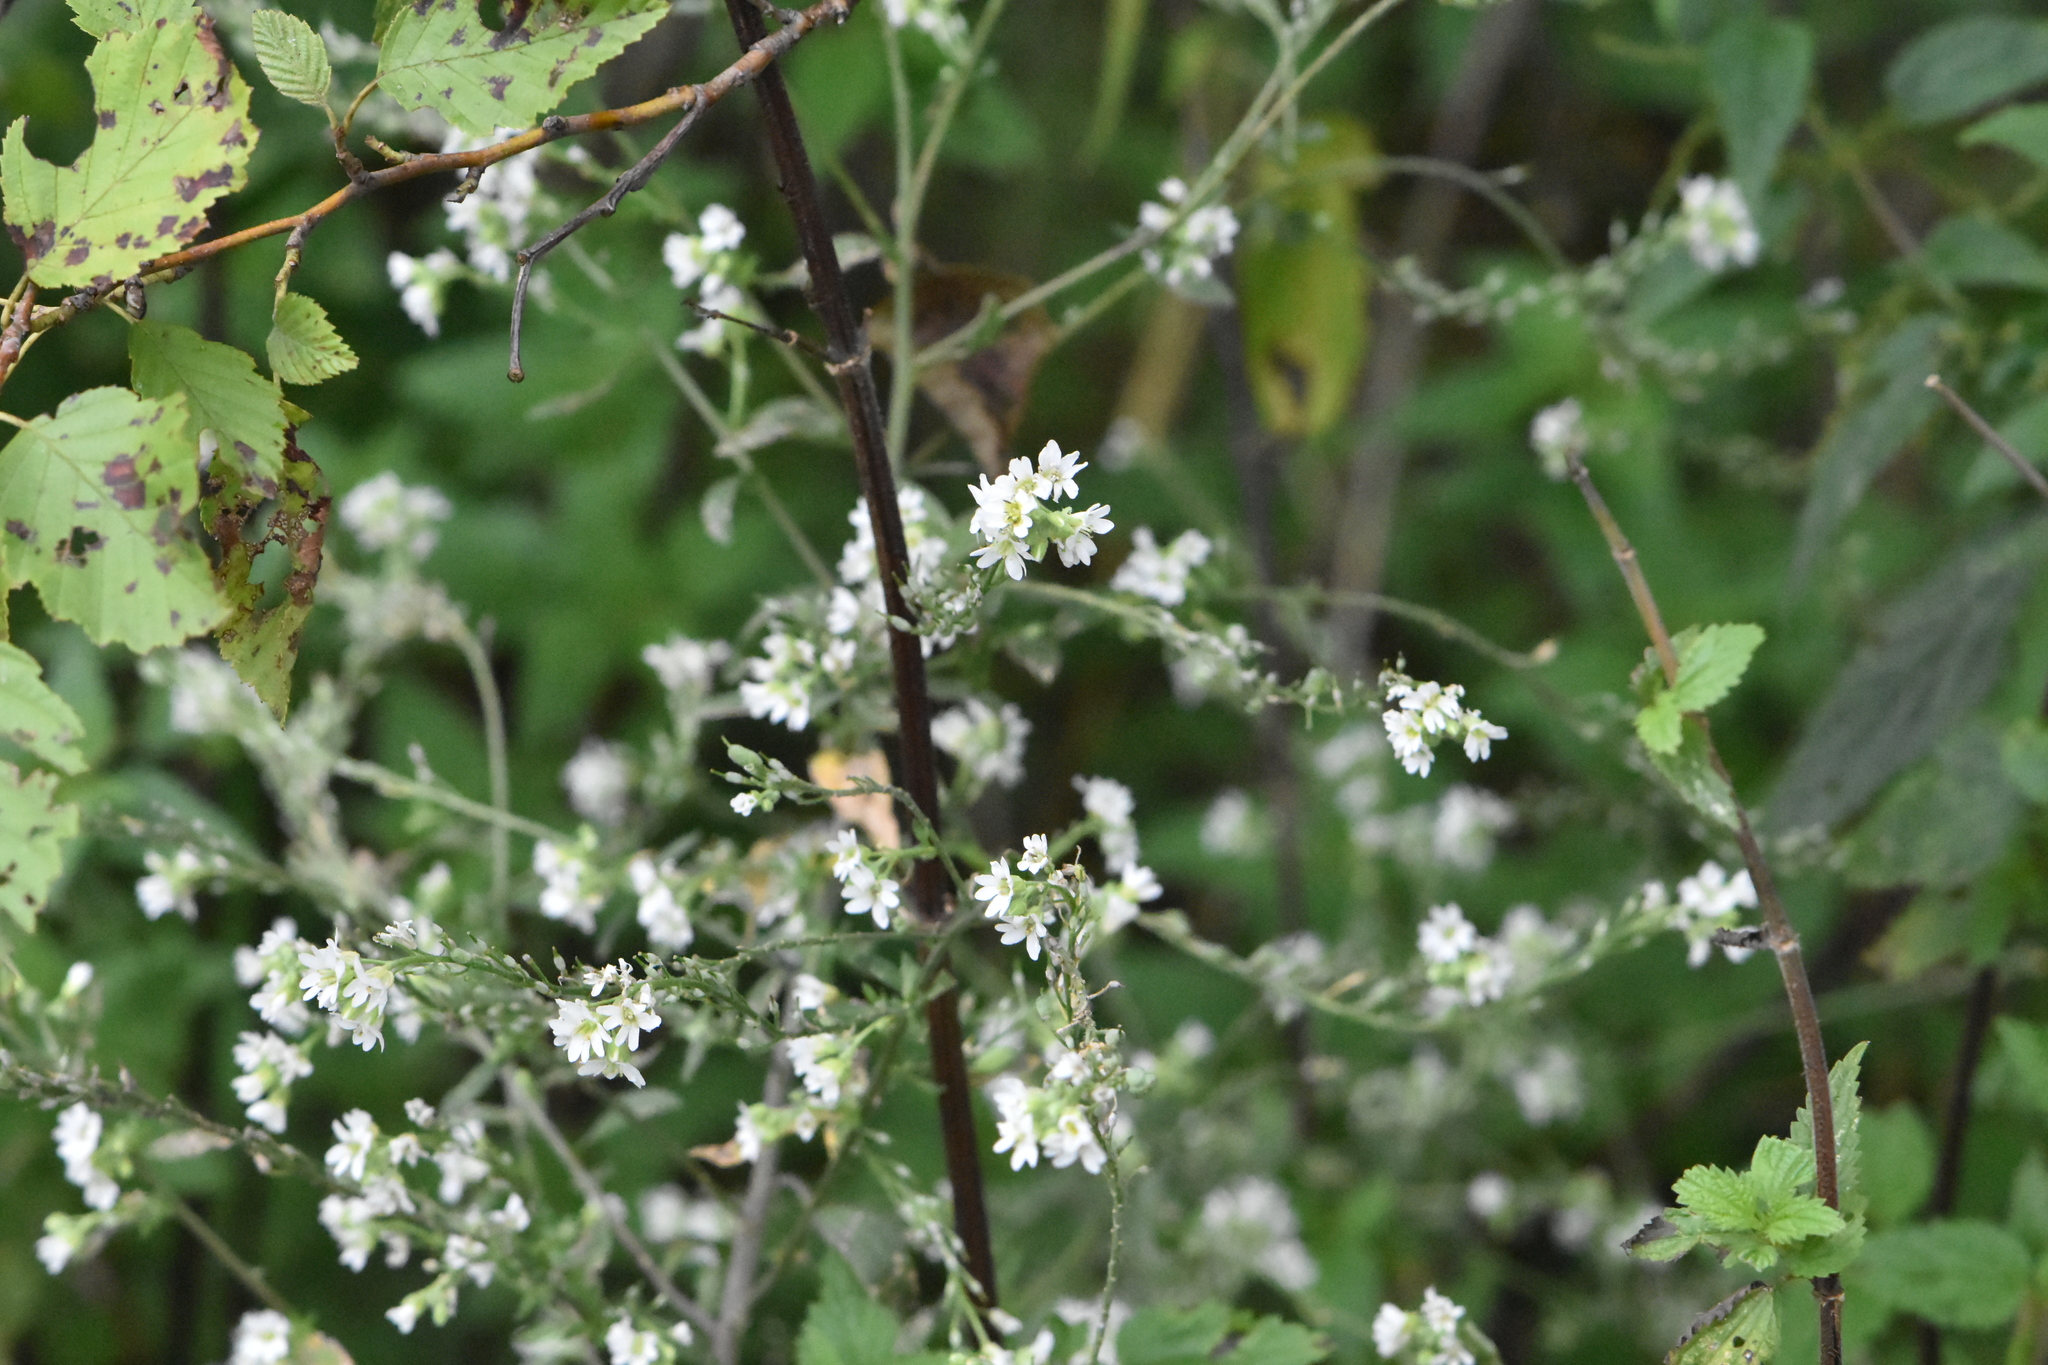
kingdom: Plantae
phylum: Tracheophyta
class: Magnoliopsida
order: Brassicales
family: Brassicaceae
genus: Berteroa
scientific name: Berteroa incana
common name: Hoary alison
